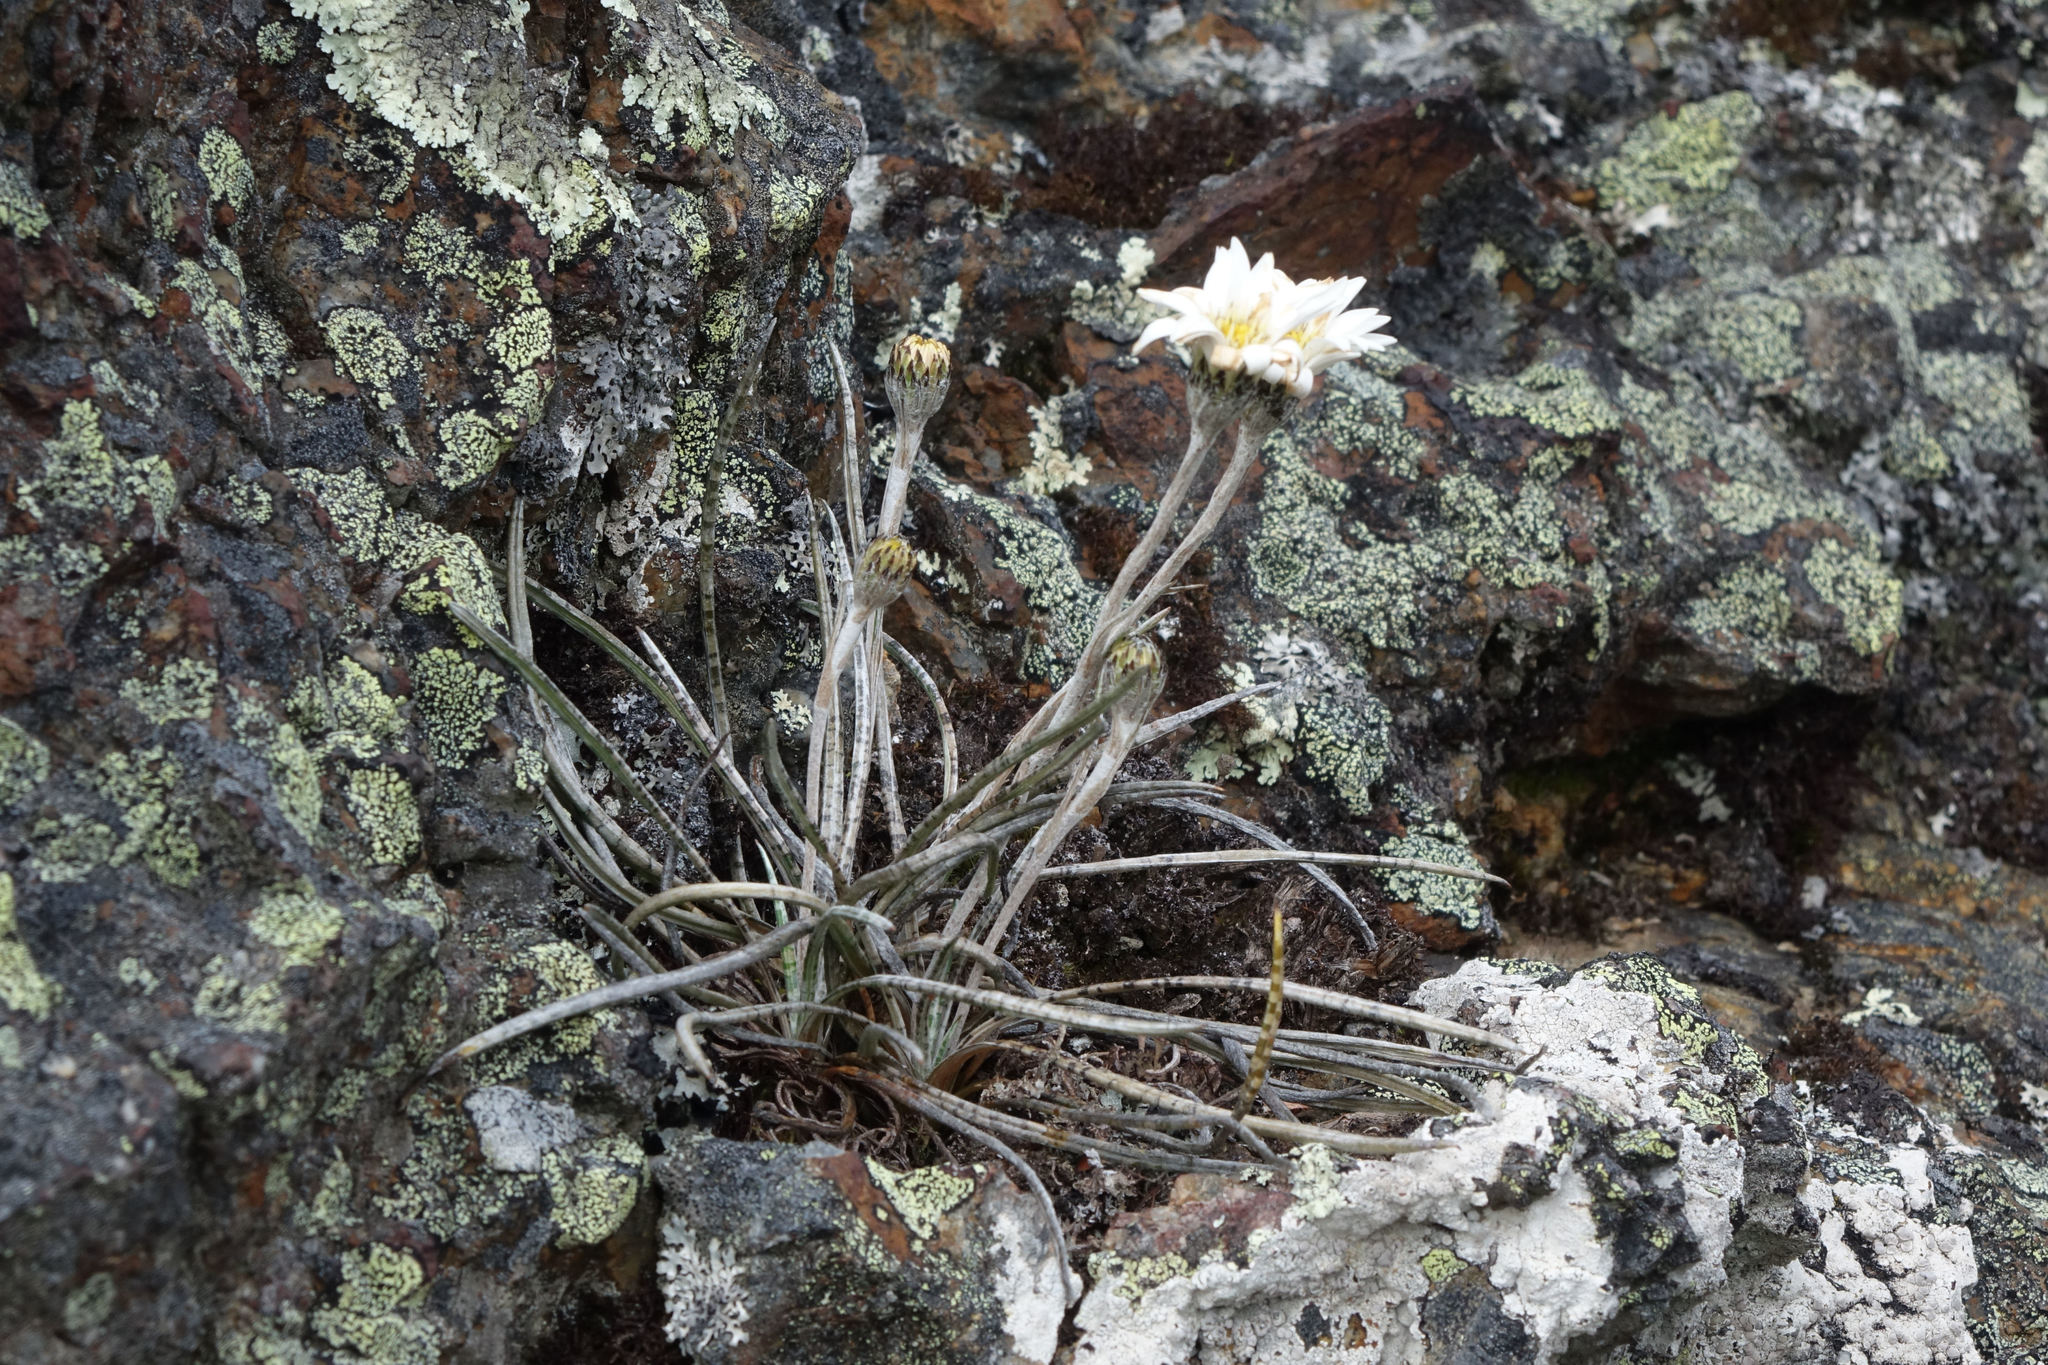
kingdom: Plantae
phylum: Tracheophyta
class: Magnoliopsida
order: Asterales
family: Asteraceae
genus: Celmisia
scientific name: Celmisia gracilenta
